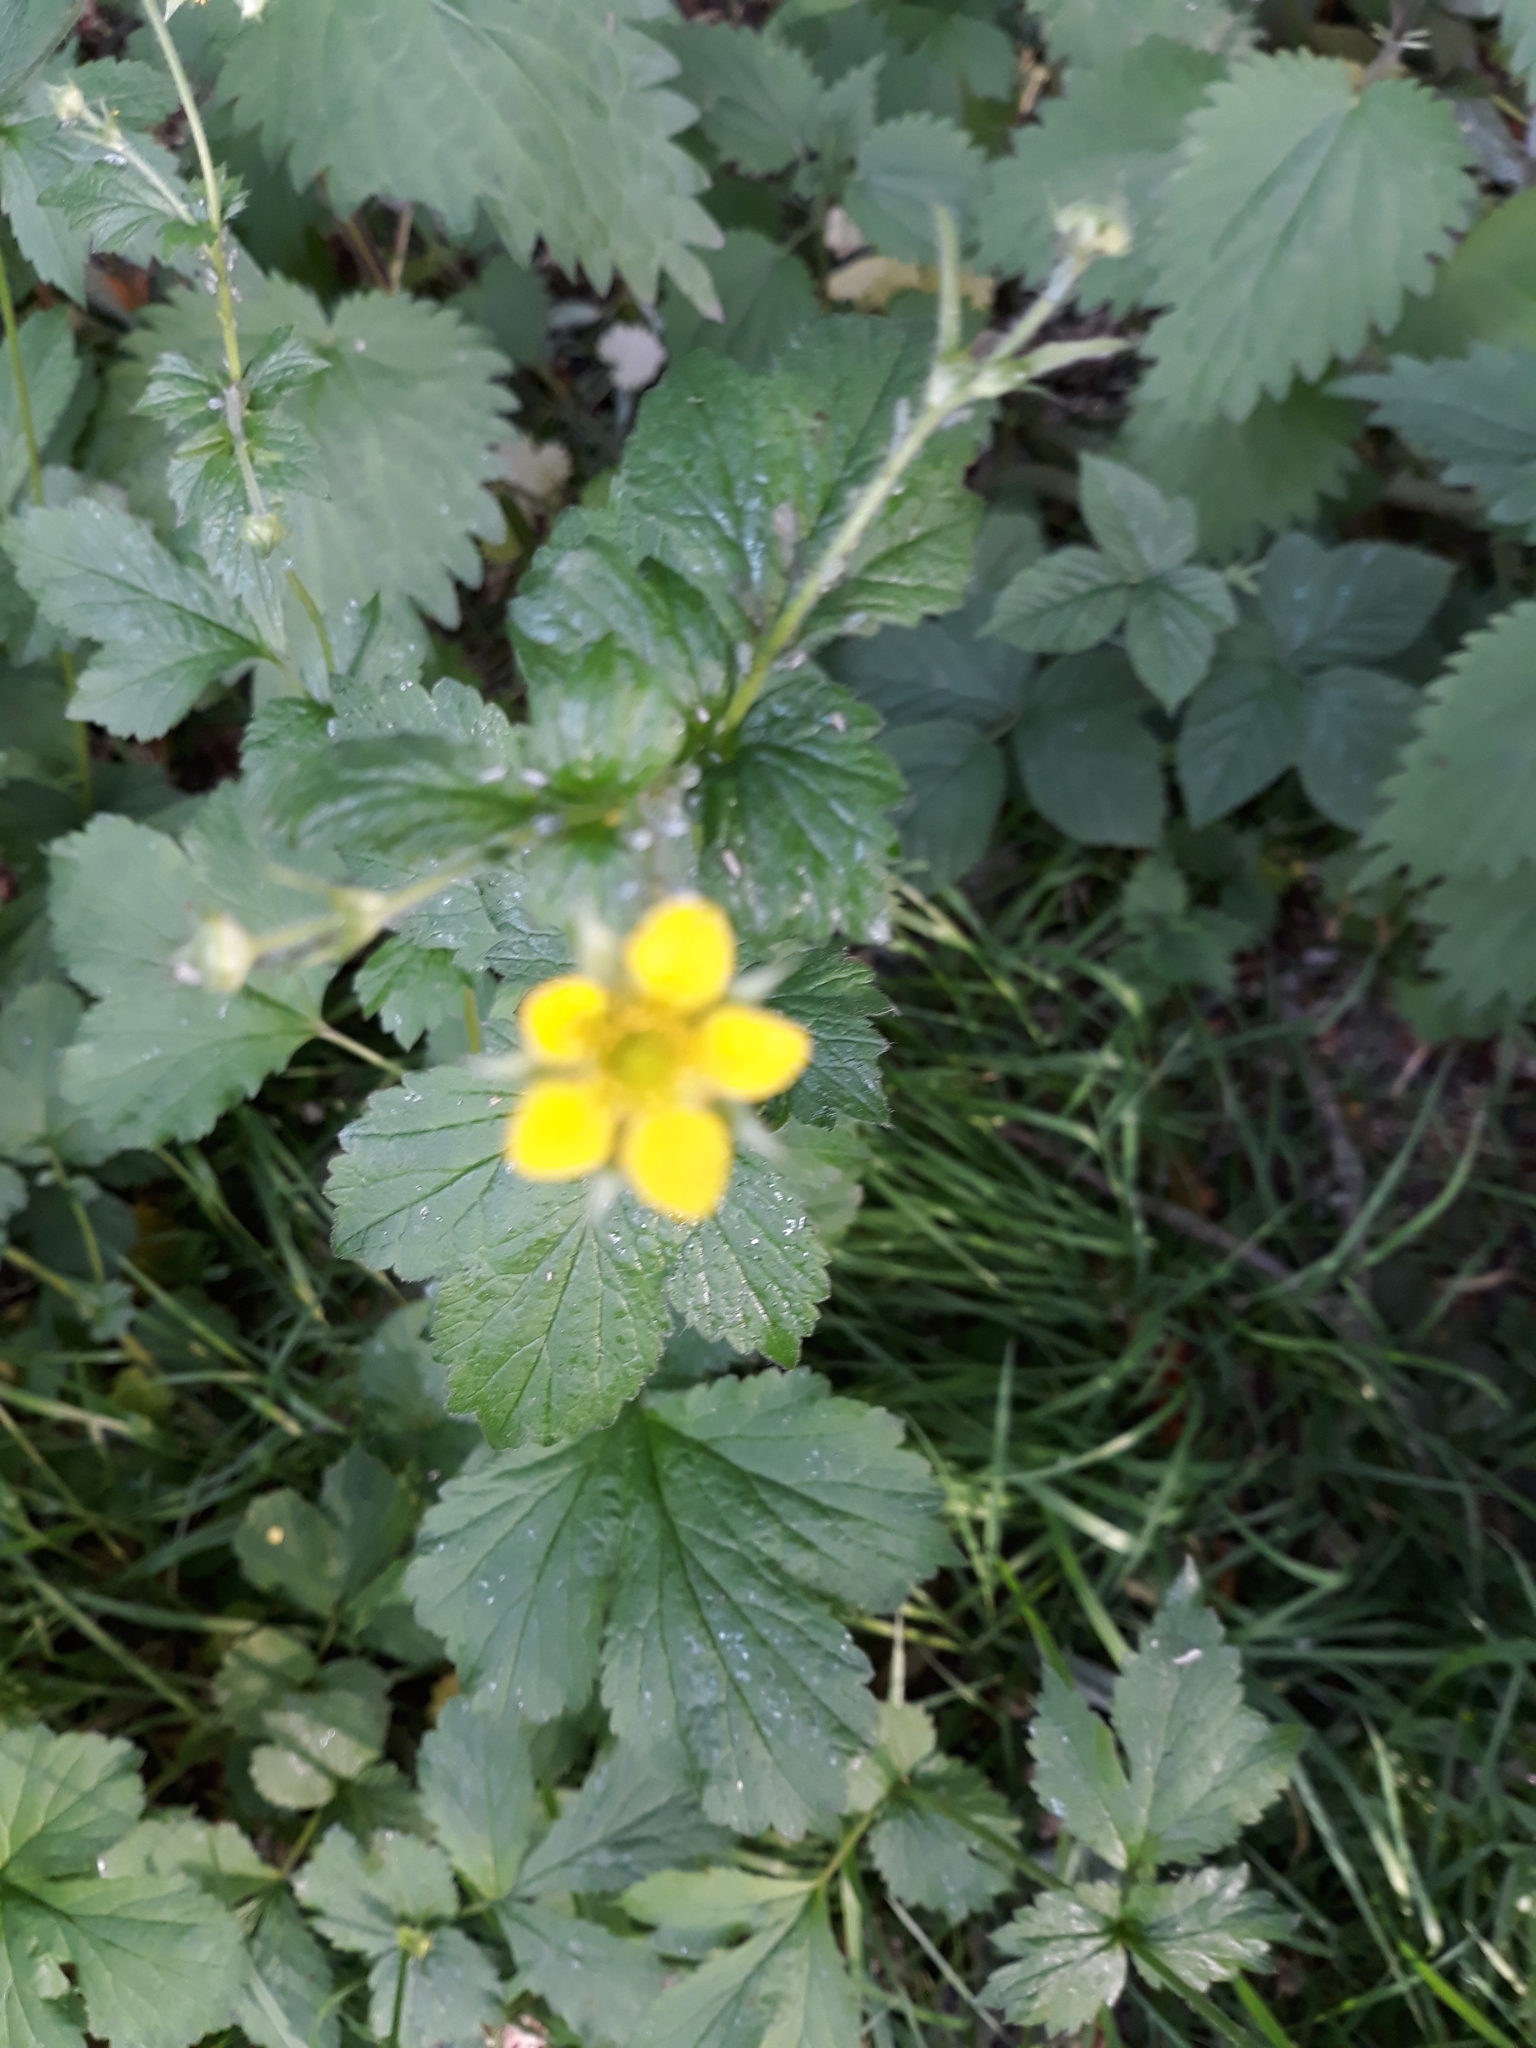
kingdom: Plantae
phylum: Tracheophyta
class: Magnoliopsida
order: Rosales
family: Rosaceae
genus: Geum
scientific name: Geum urbanum
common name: Wood avens
